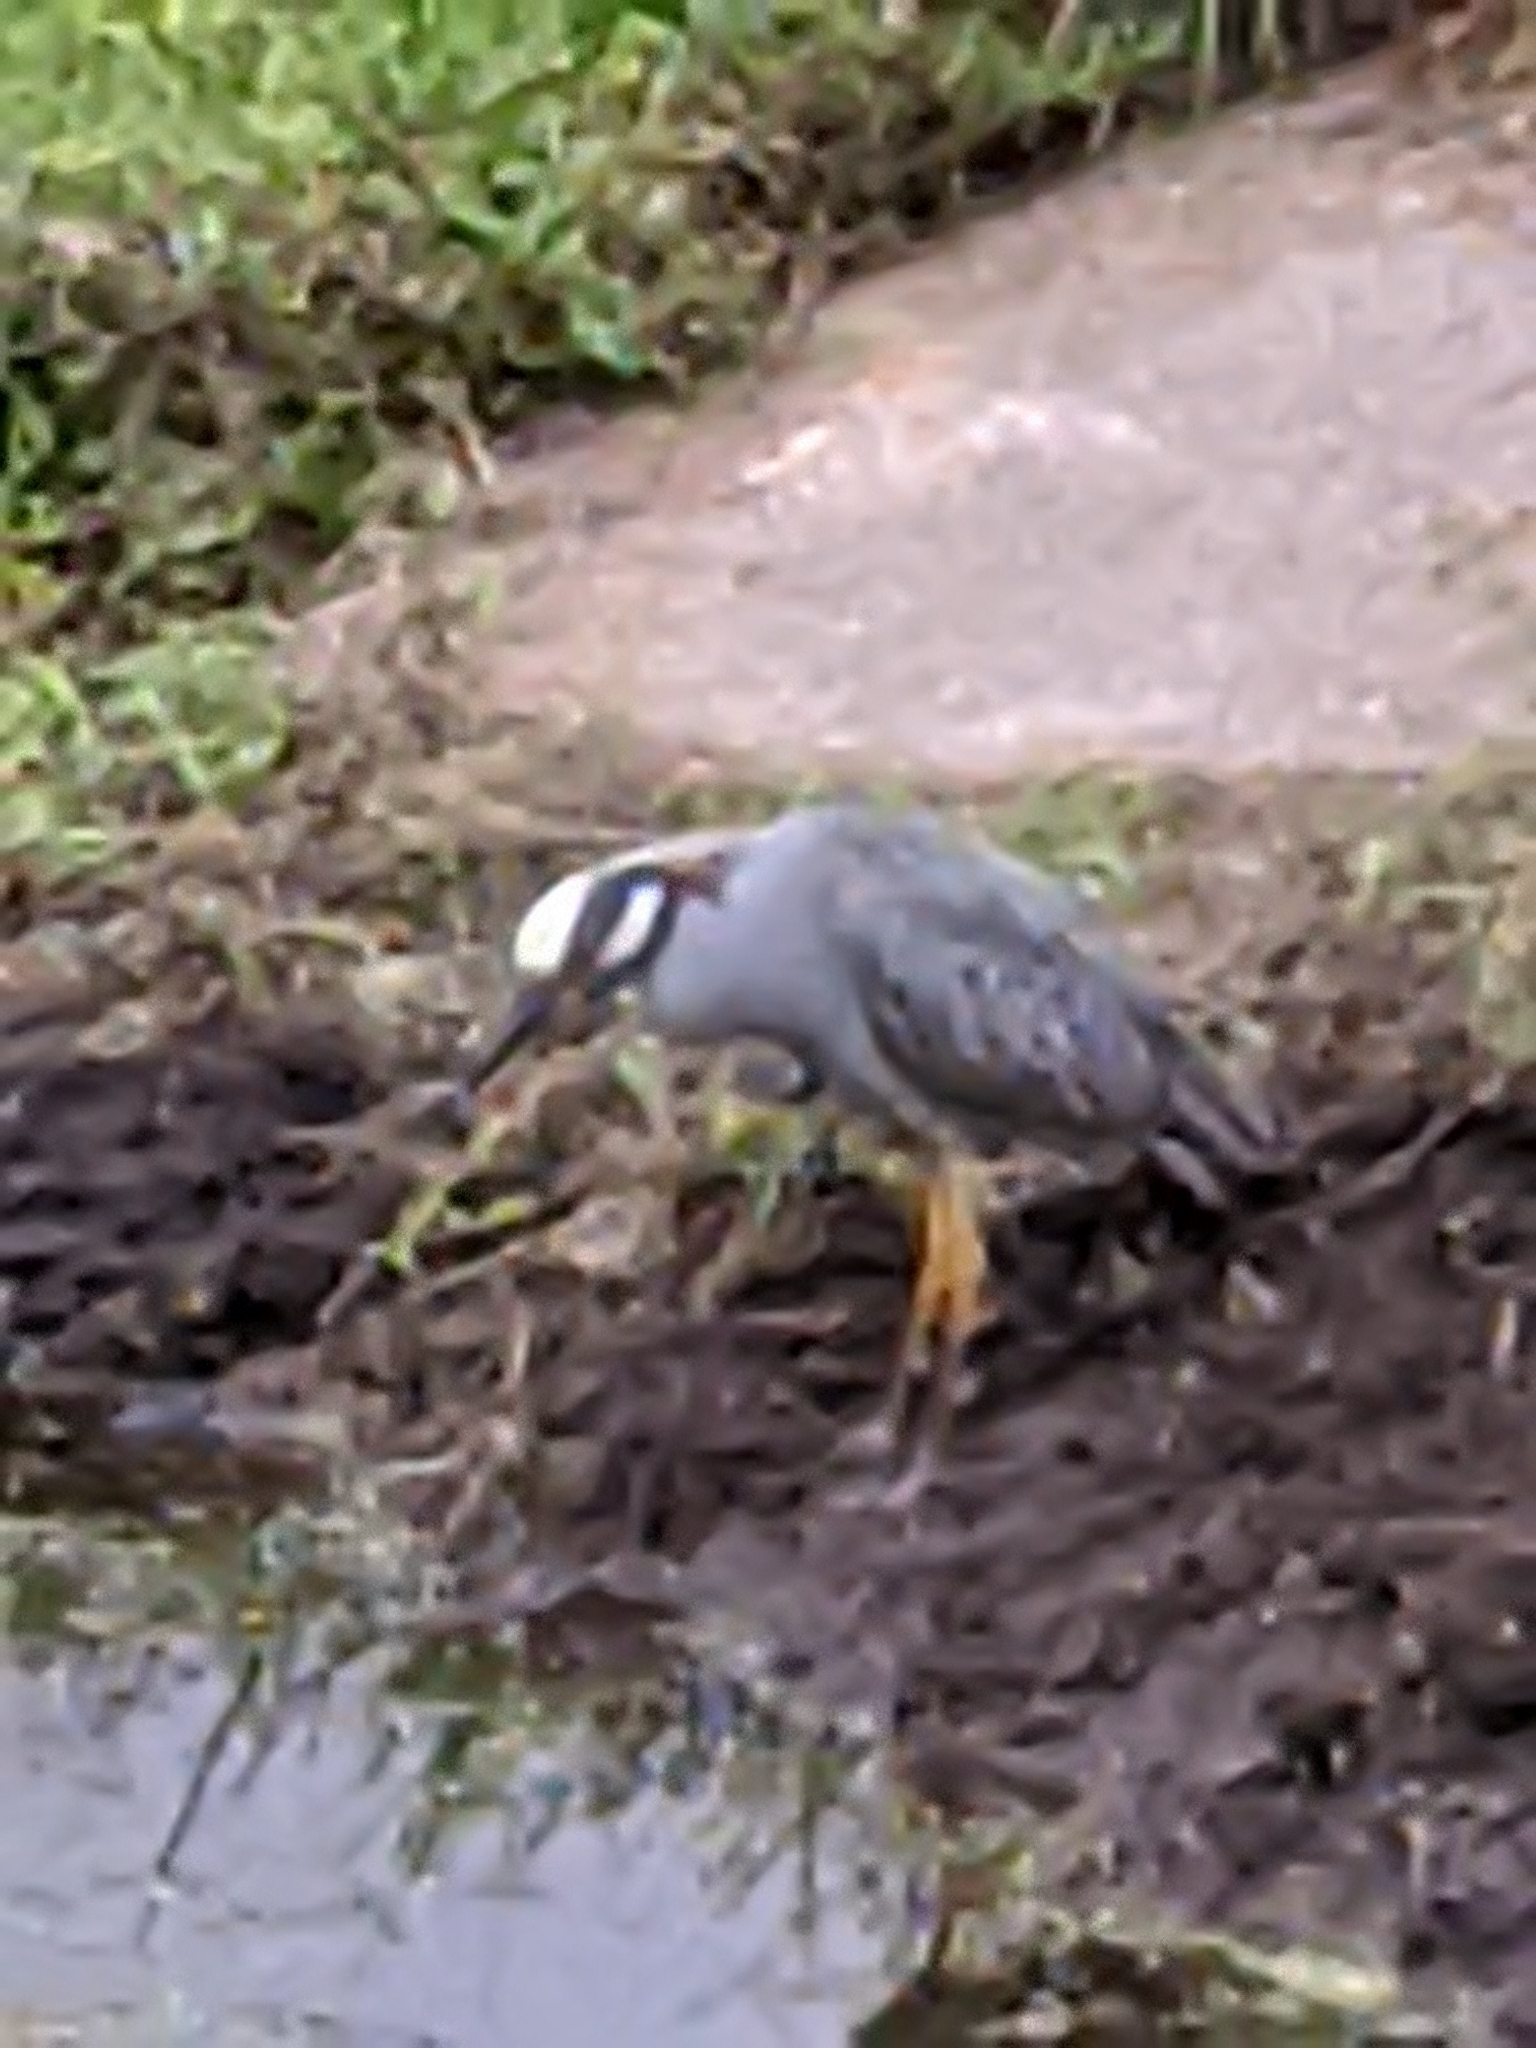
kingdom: Animalia
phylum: Chordata
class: Aves
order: Pelecaniformes
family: Ardeidae
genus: Nyctanassa
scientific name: Nyctanassa violacea
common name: Yellow-crowned night heron
